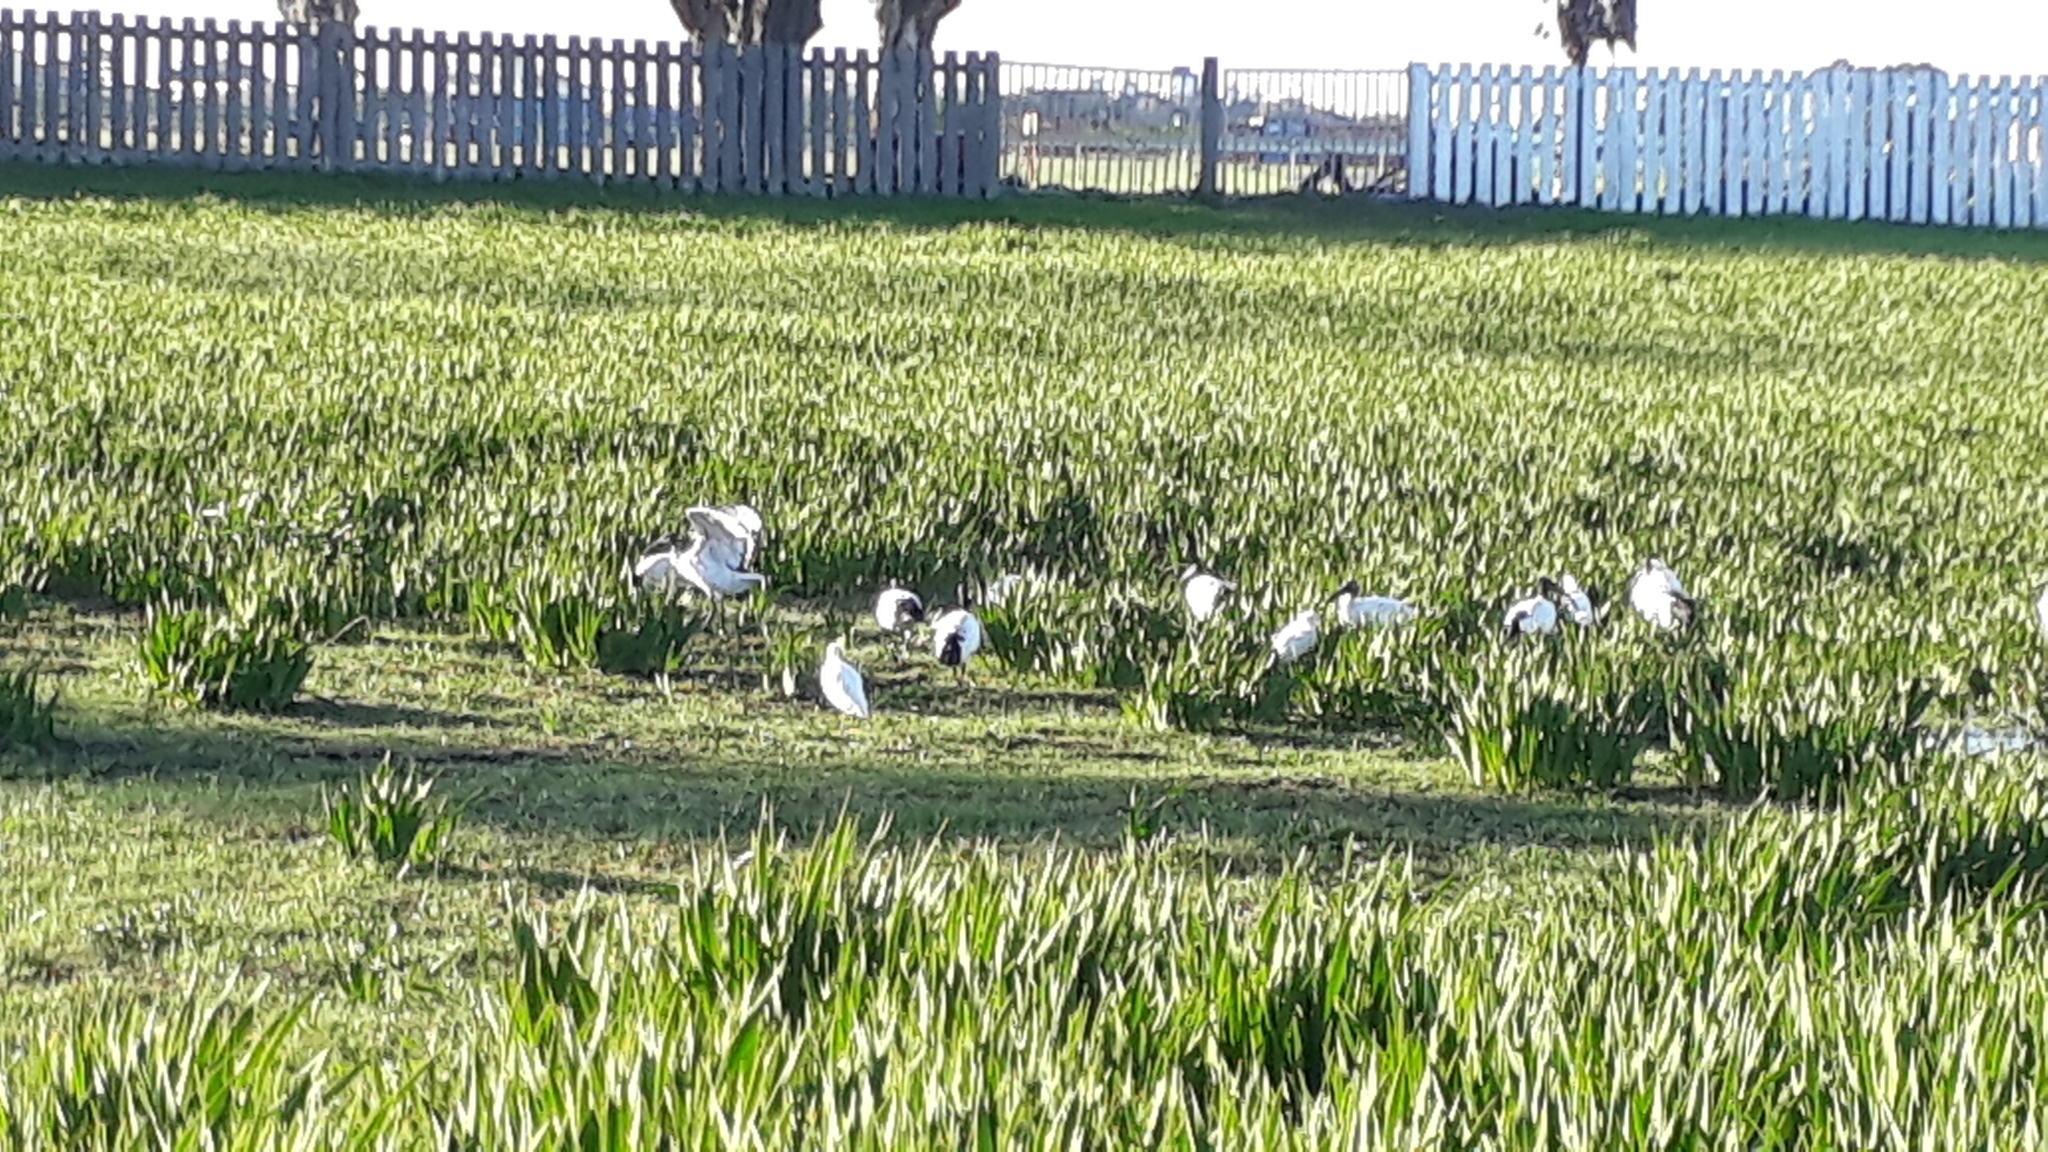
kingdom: Animalia
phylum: Chordata
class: Aves
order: Pelecaniformes
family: Threskiornithidae
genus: Threskiornis
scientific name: Threskiornis aethiopicus
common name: Sacred ibis
